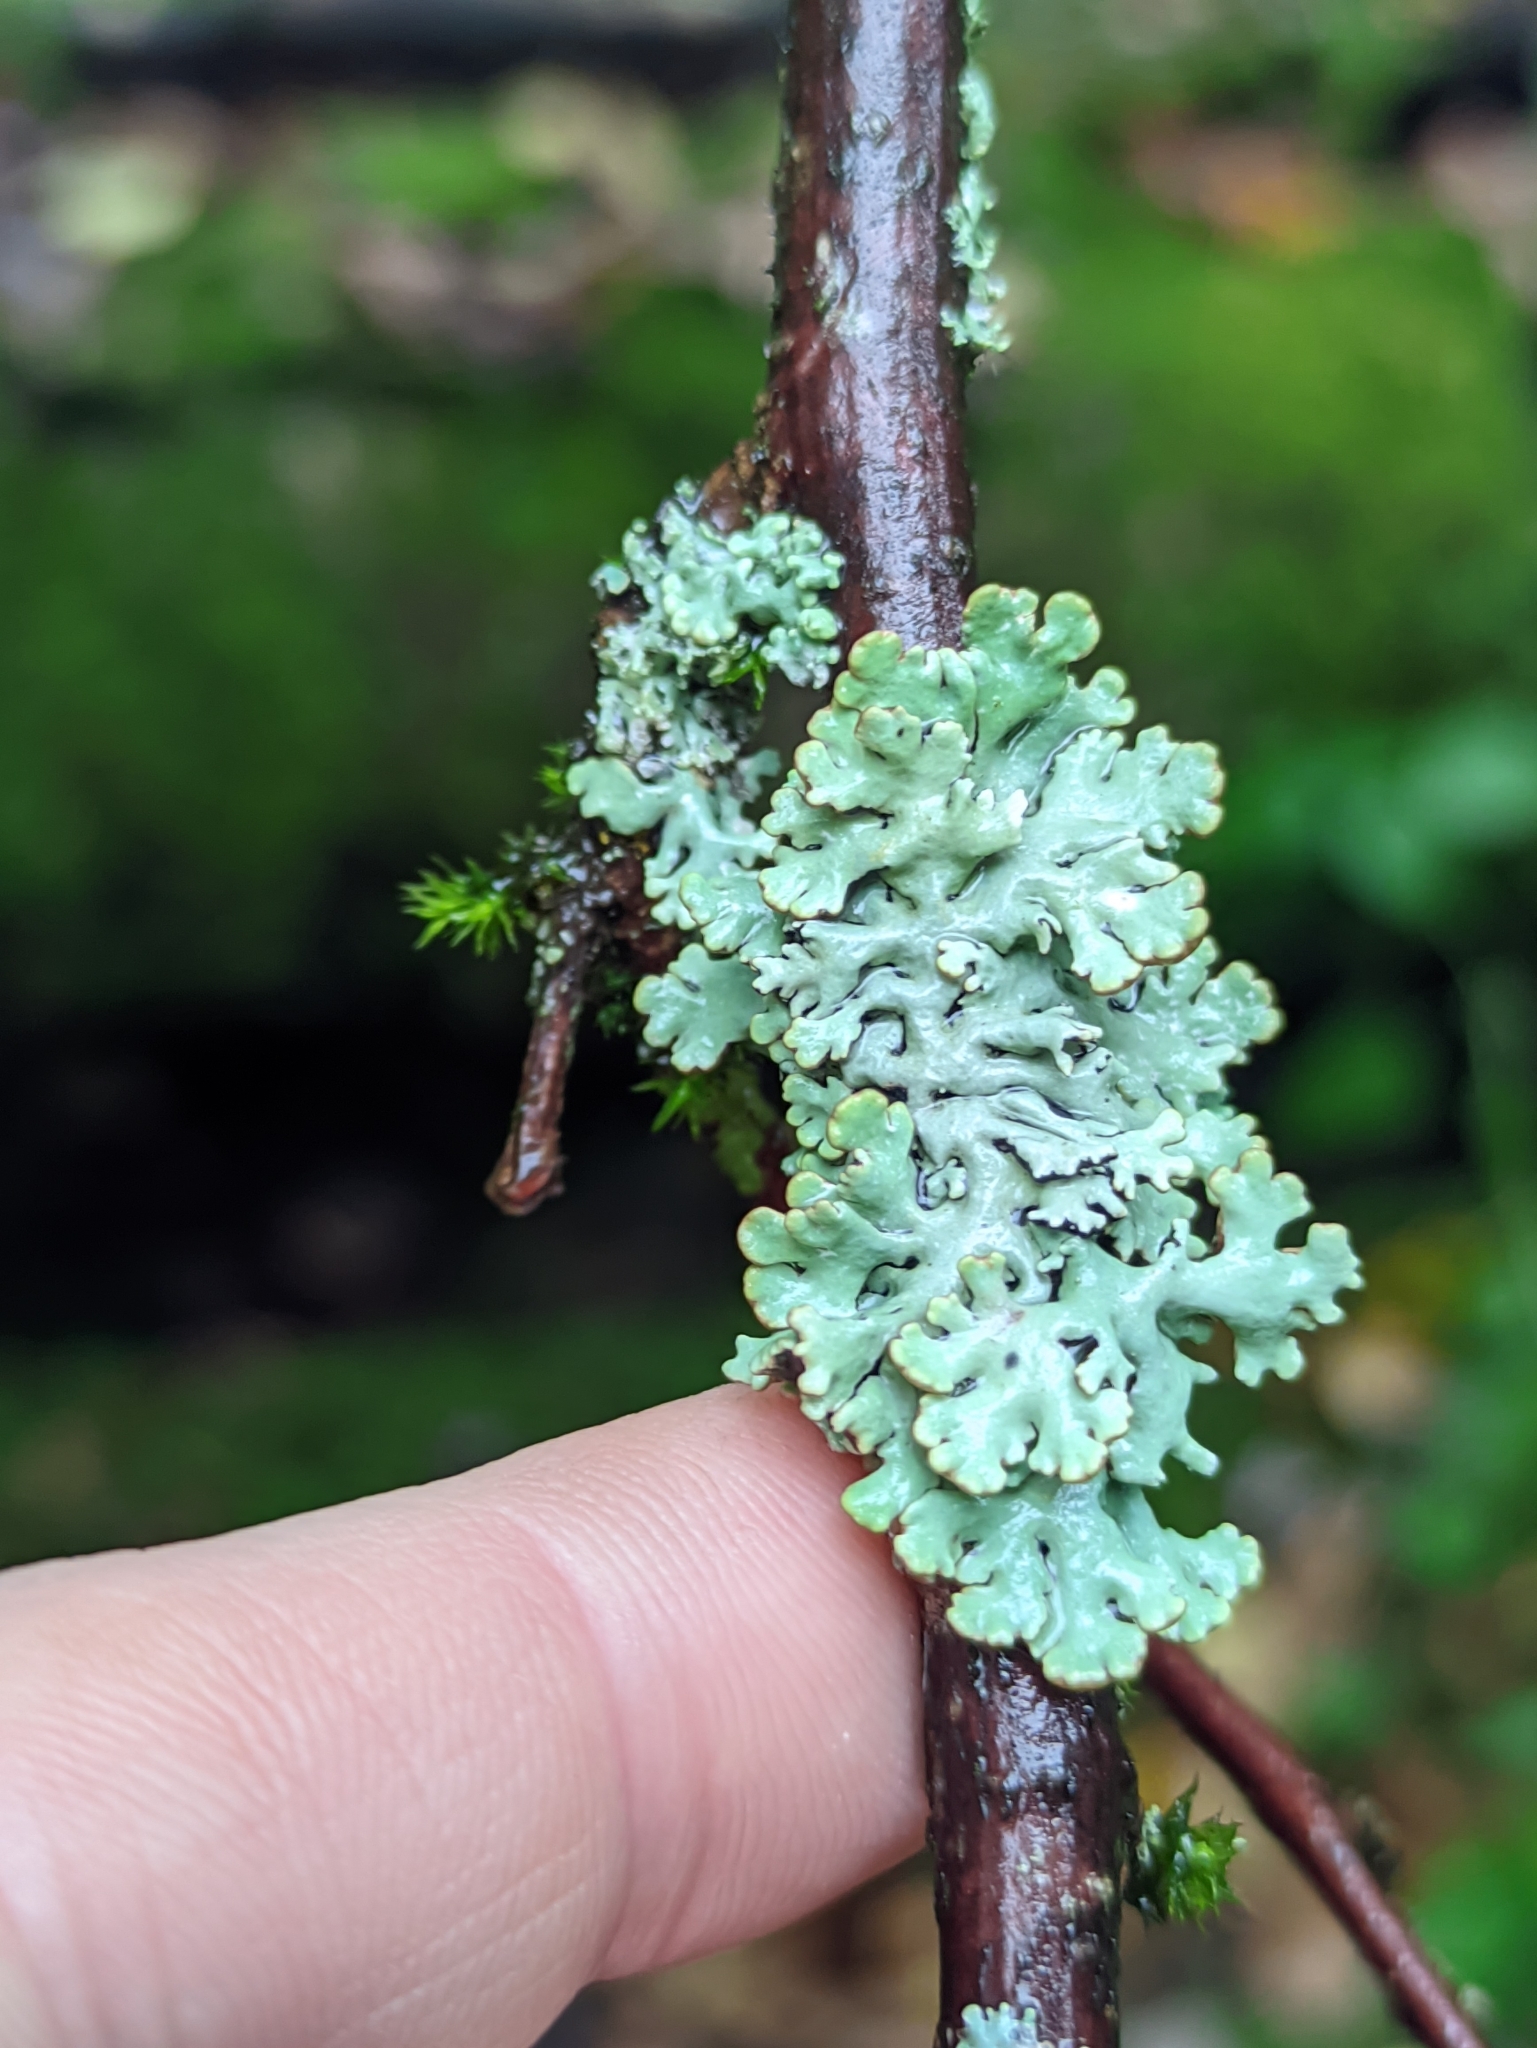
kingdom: Fungi
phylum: Ascomycota
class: Lecanoromycetes
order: Lecanorales
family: Parmeliaceae
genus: Hypogymnia
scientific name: Hypogymnia physodes
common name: Dark crottle
